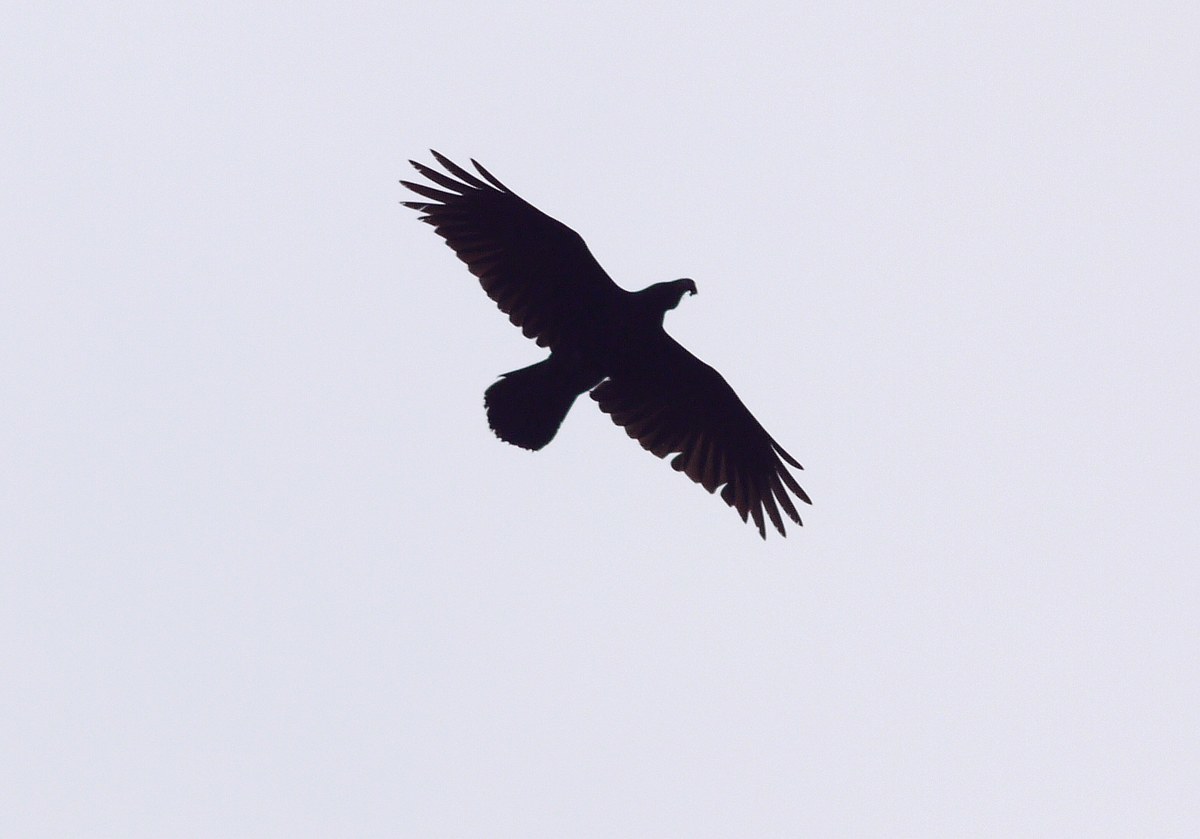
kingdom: Animalia
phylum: Chordata
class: Aves
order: Passeriformes
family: Corvidae
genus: Corvus
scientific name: Corvus corax
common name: Common raven
